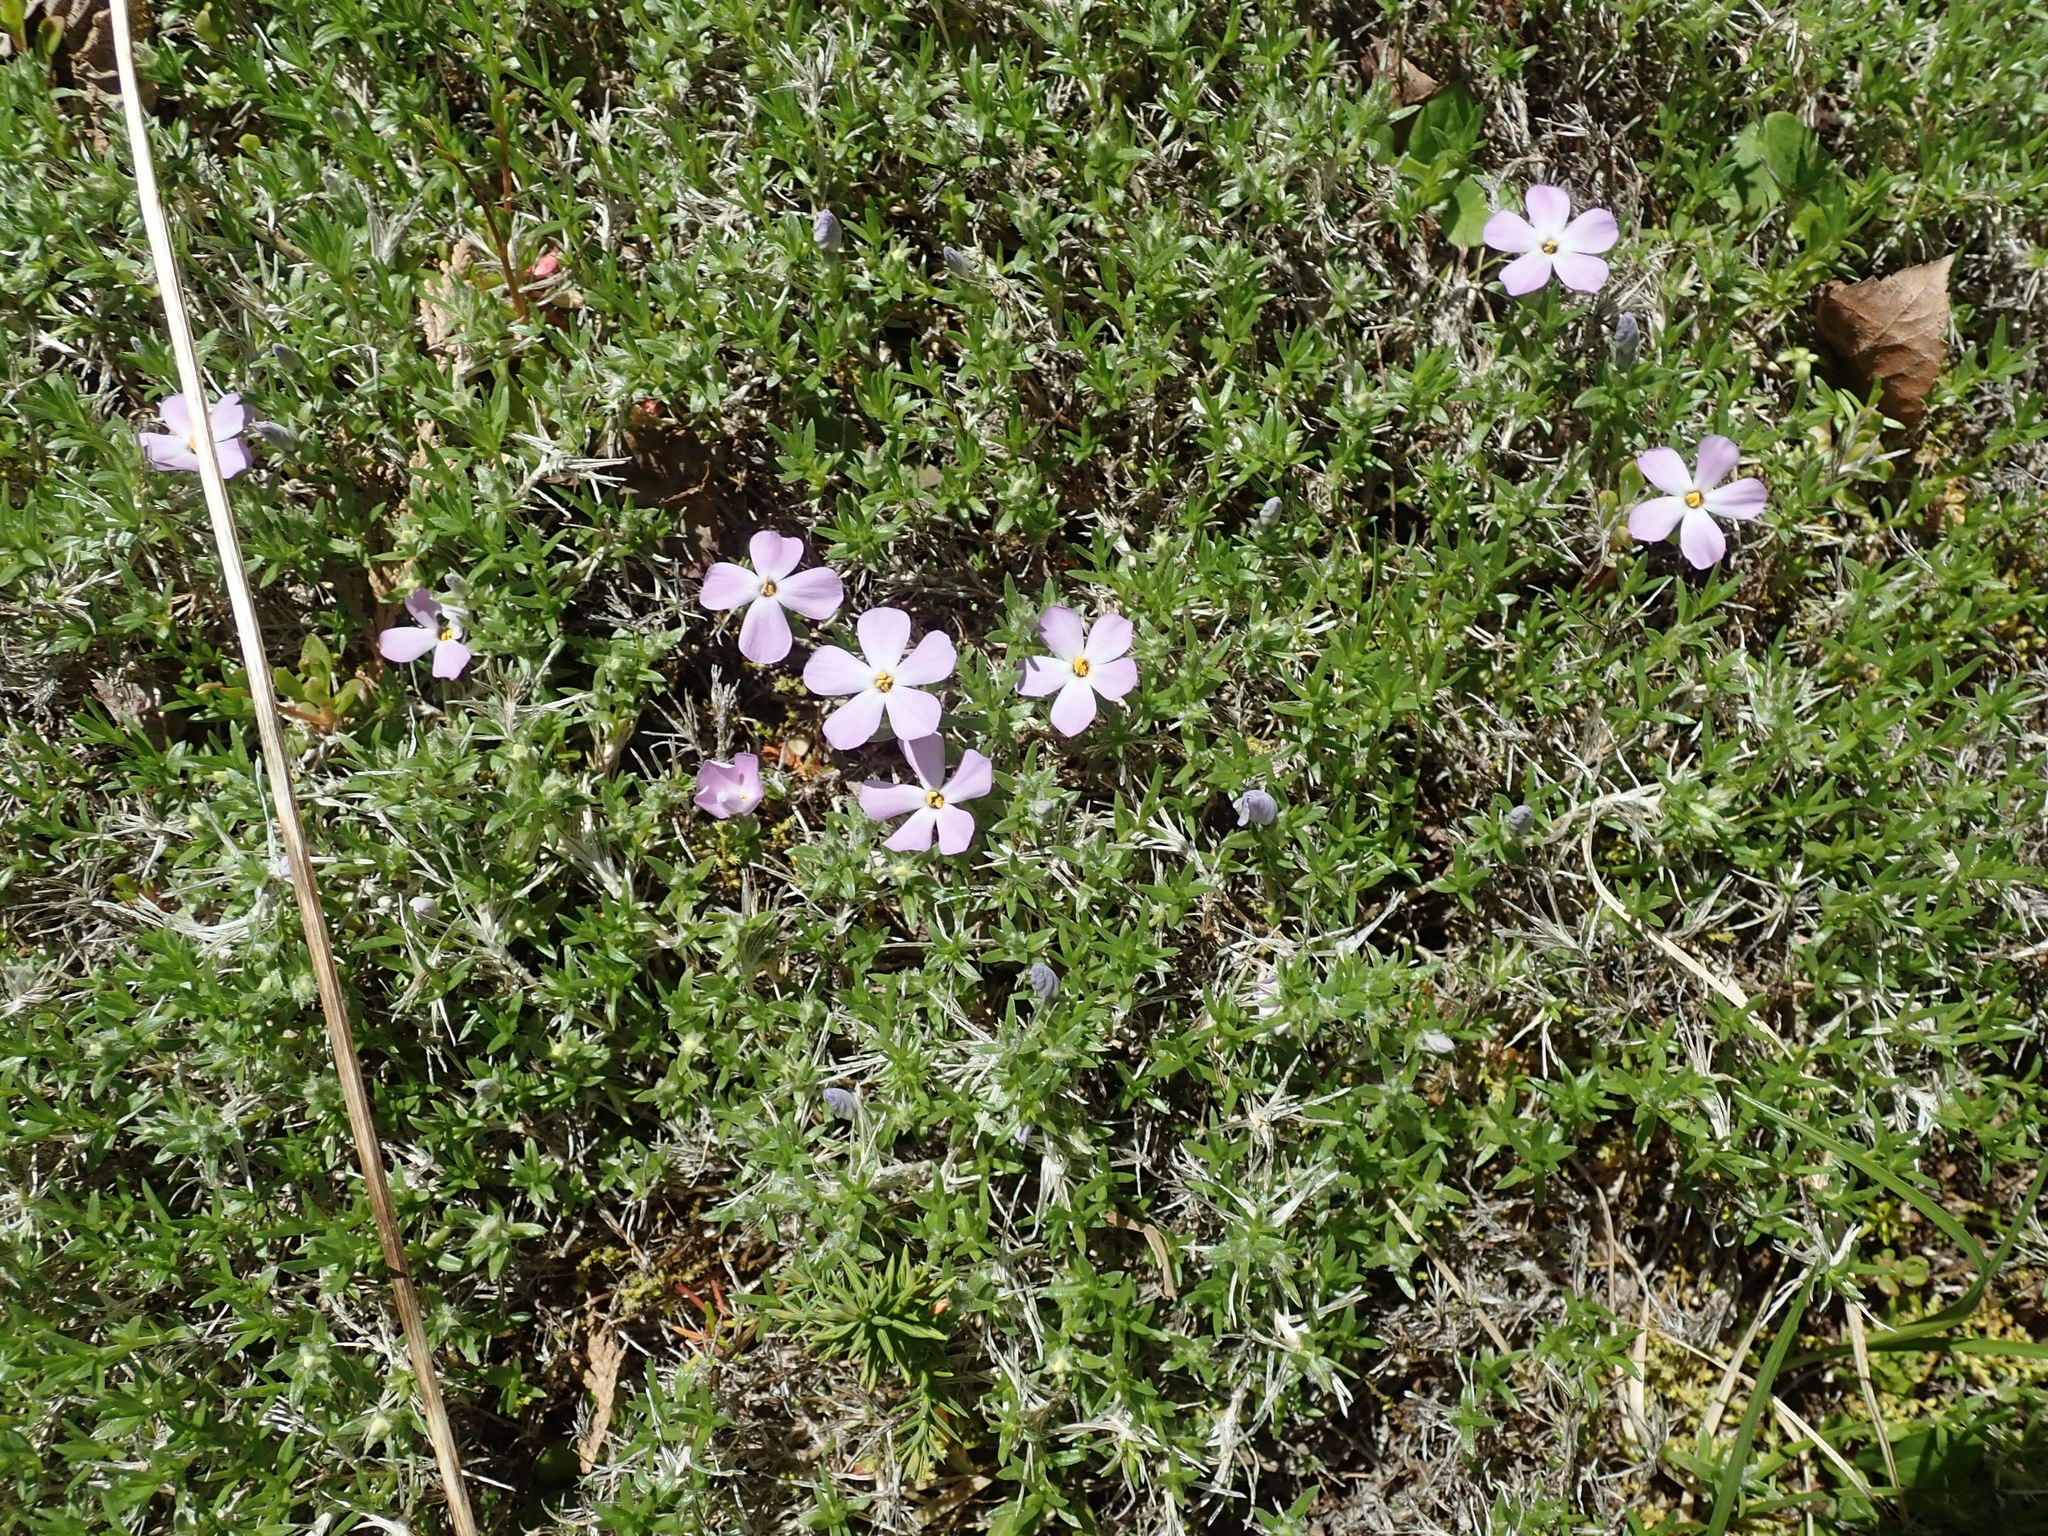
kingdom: Plantae
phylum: Tracheophyta
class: Magnoliopsida
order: Ericales
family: Polemoniaceae
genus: Phlox
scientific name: Phlox diffusa
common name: Mat phlox
